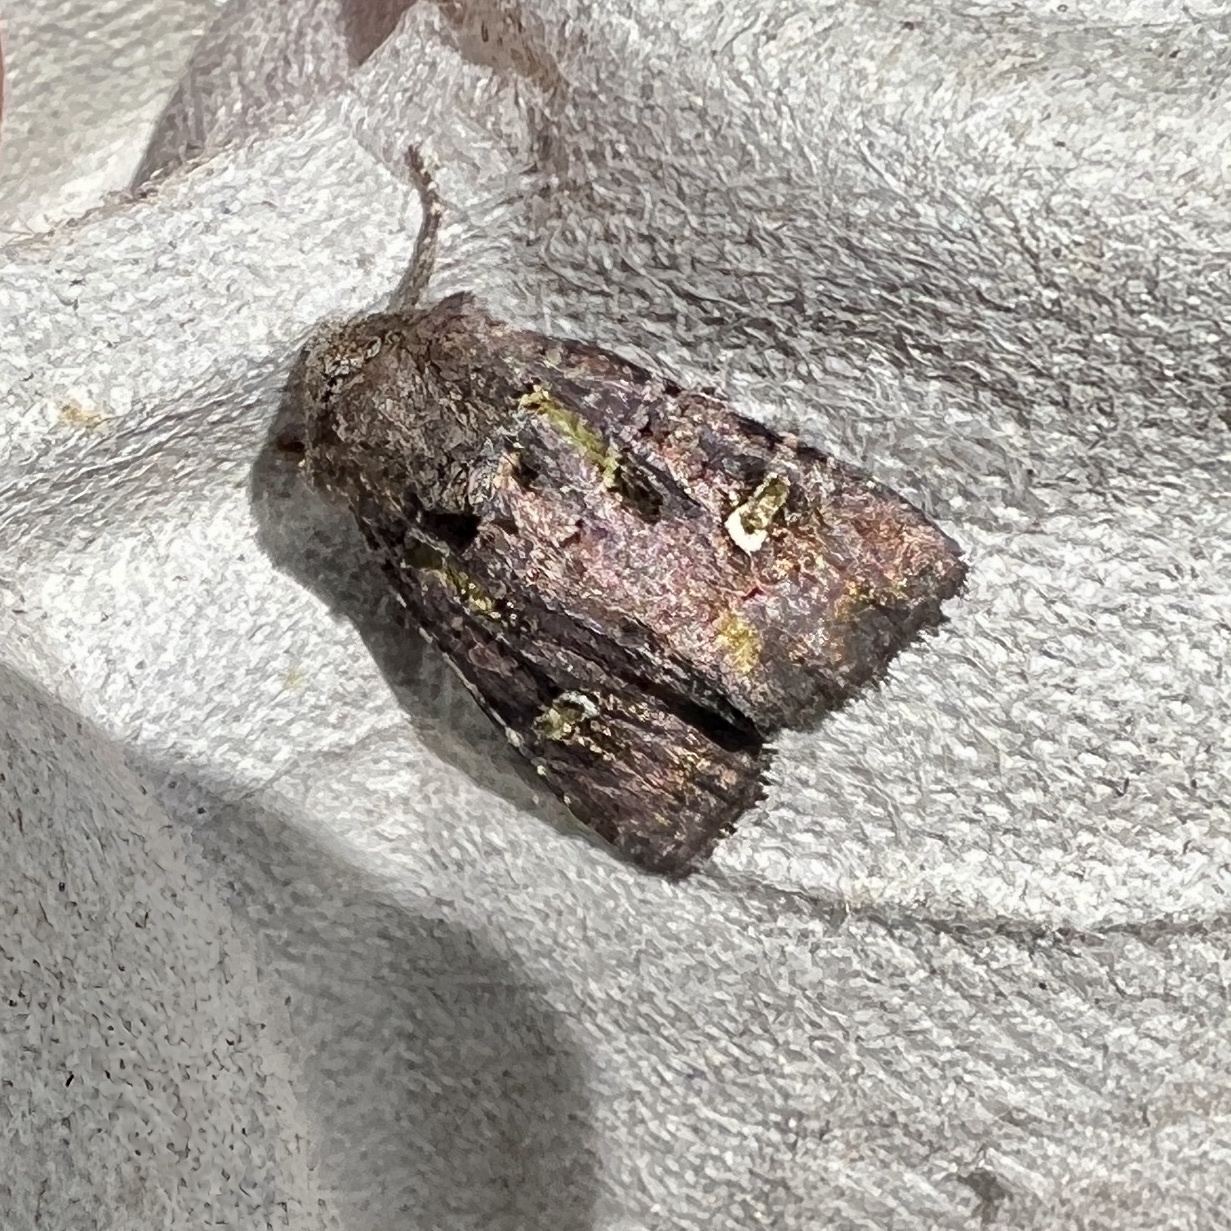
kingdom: Animalia
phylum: Arthropoda
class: Insecta
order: Lepidoptera
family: Noctuidae
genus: Lacinipolia
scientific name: Lacinipolia renigera
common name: Kidney-spotted minor
